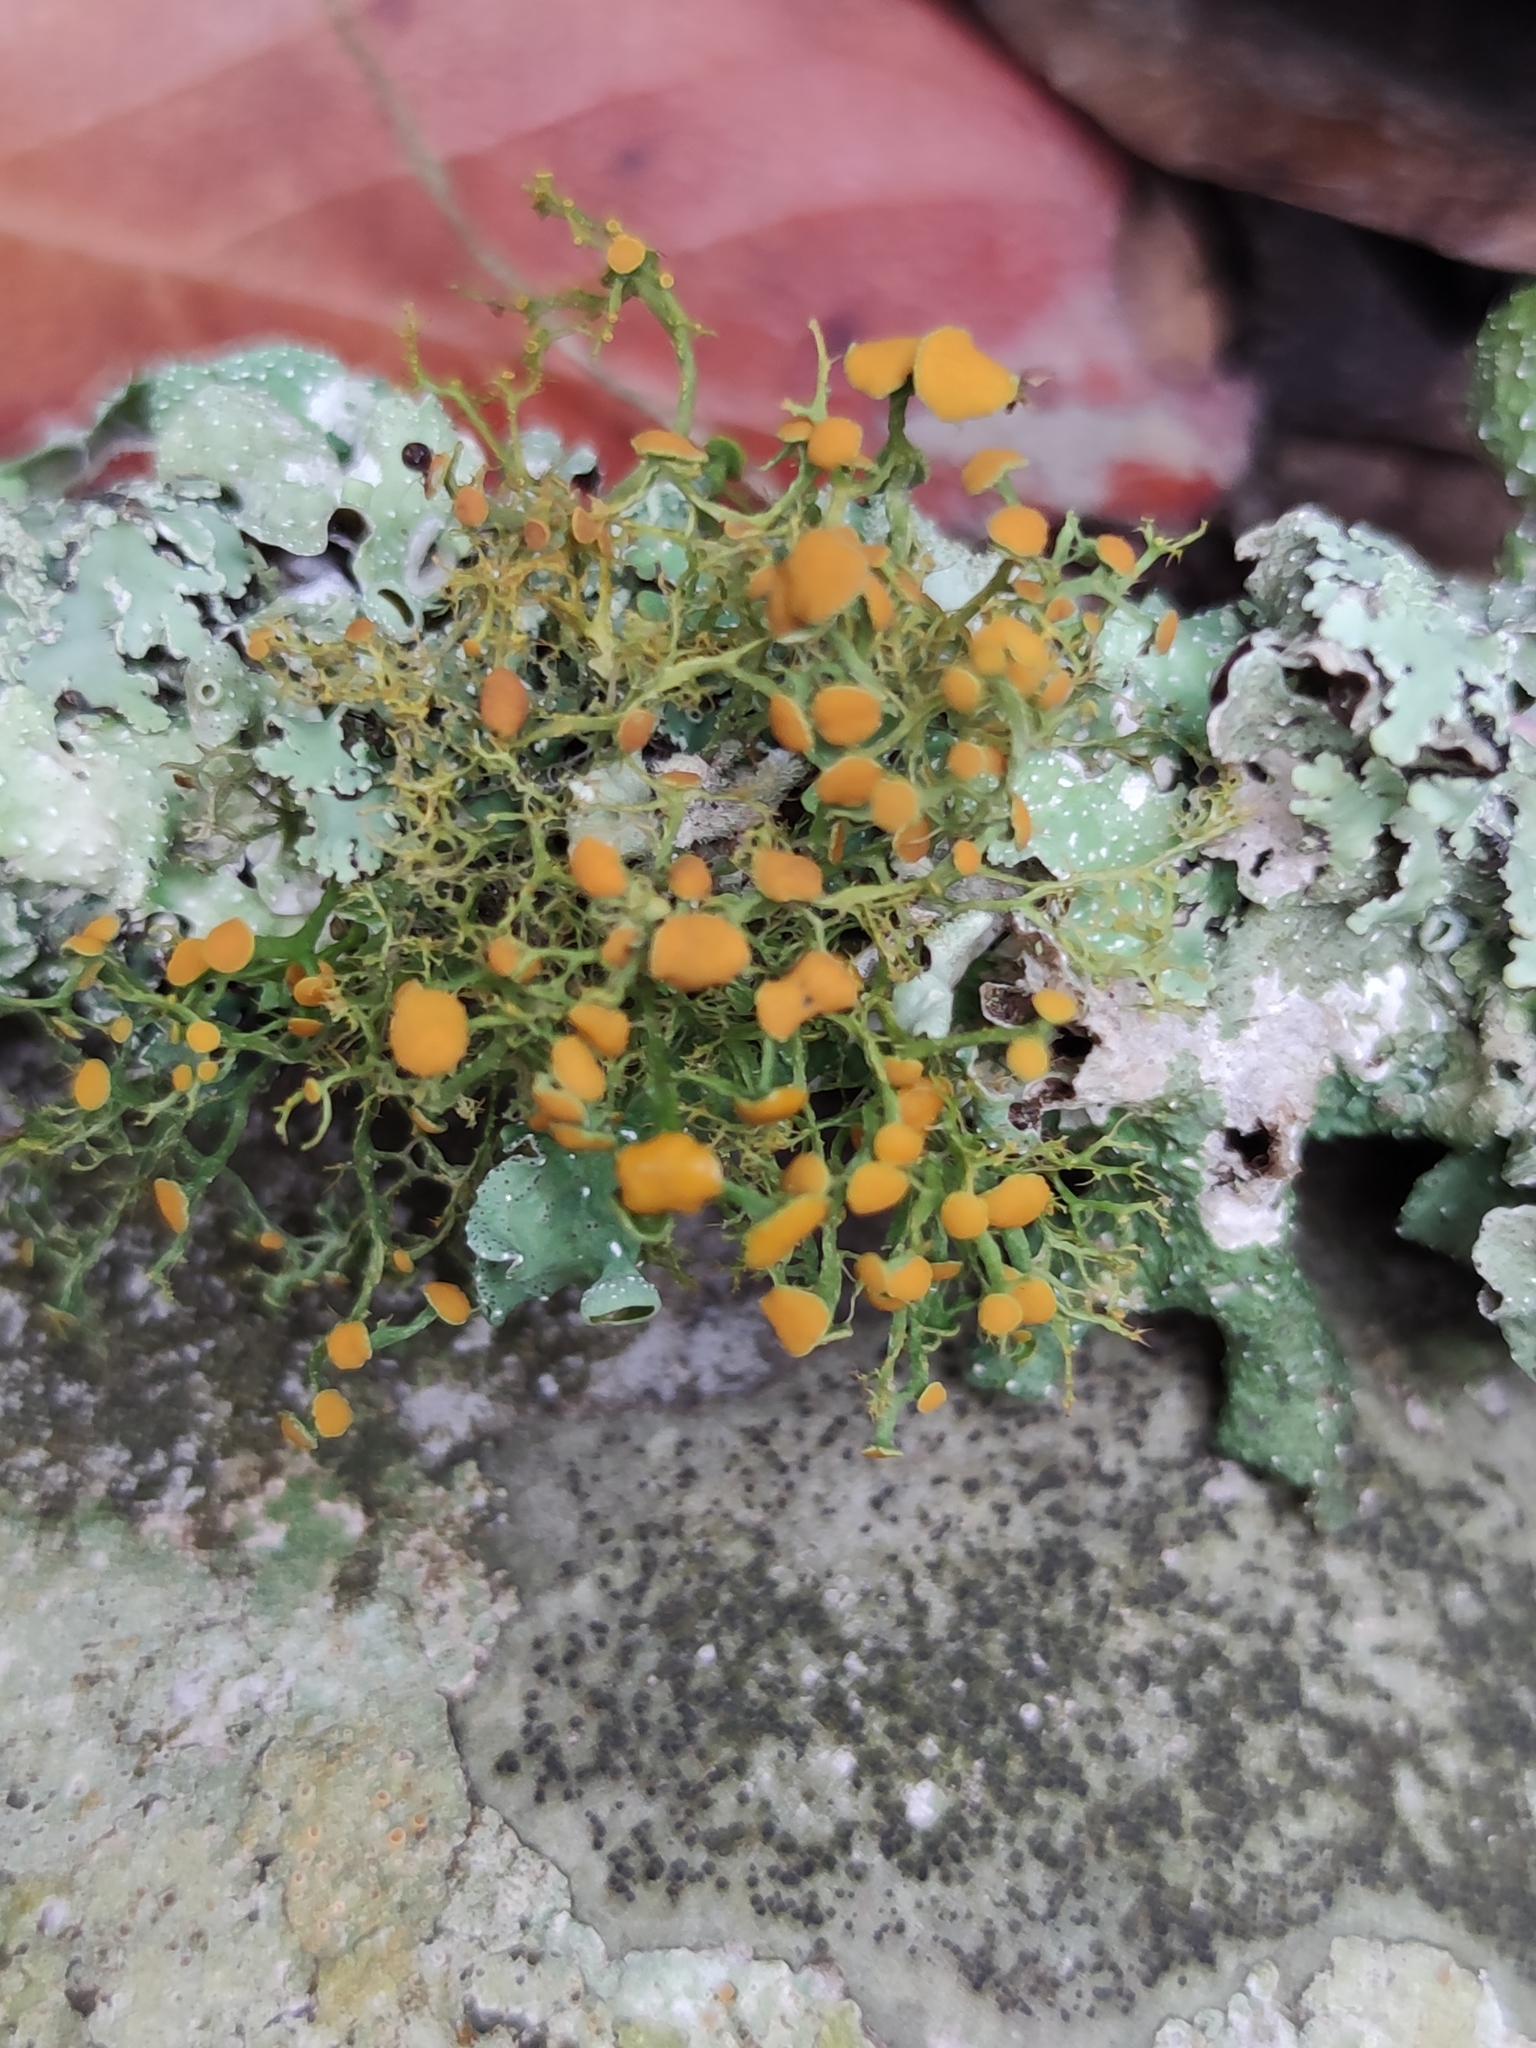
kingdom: Fungi
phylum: Ascomycota
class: Lecanoromycetes
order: Teloschistales
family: Teloschistaceae
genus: Teloschistes
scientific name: Teloschistes exilis
